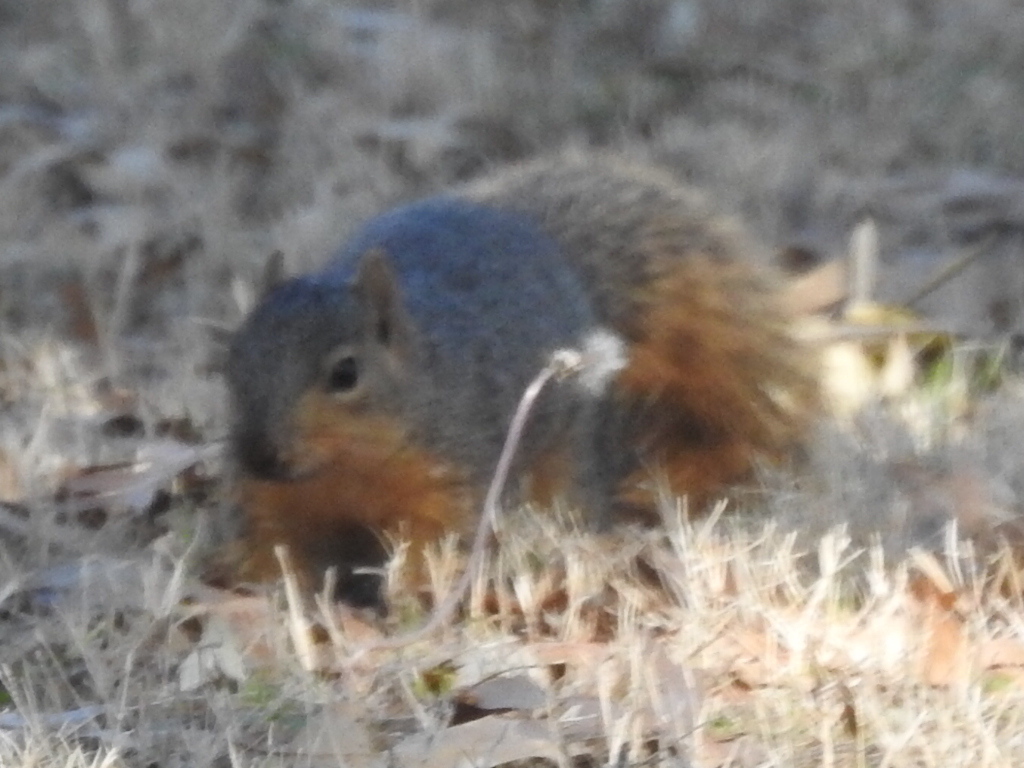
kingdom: Animalia
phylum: Chordata
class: Mammalia
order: Rodentia
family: Sciuridae
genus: Sciurus
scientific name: Sciurus niger
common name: Fox squirrel
